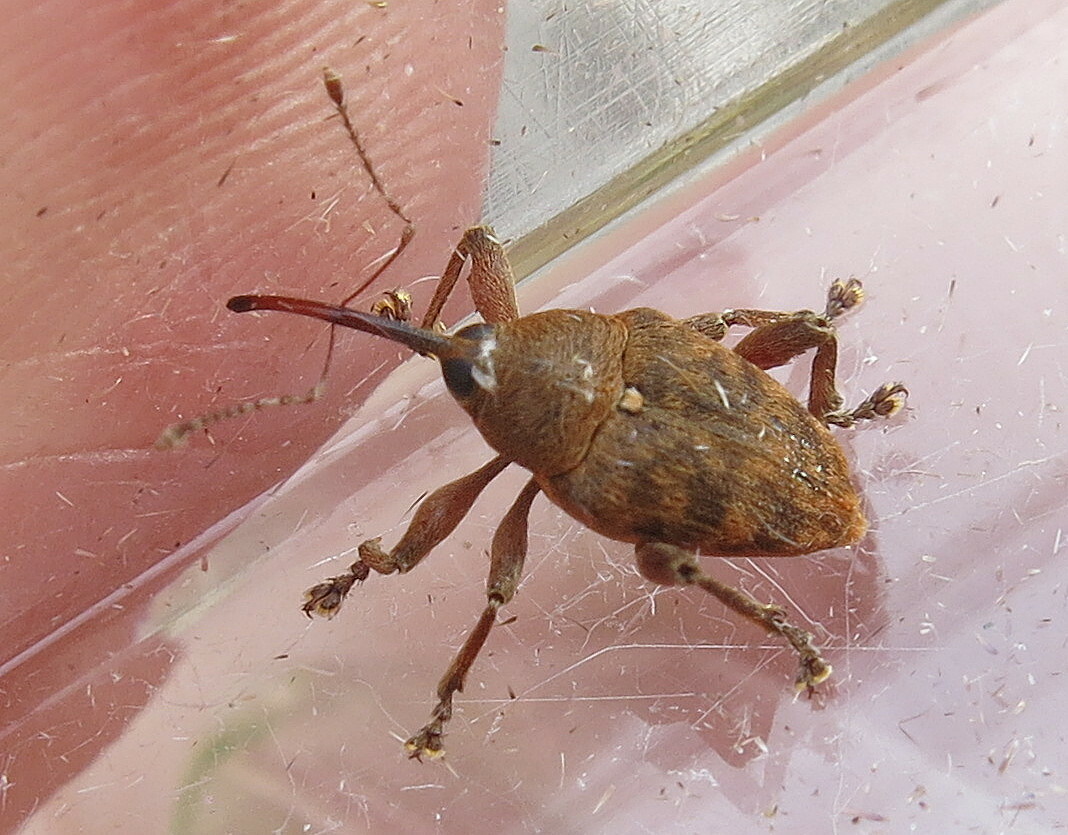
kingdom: Animalia
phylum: Arthropoda
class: Insecta
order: Coleoptera
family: Curculionidae
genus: Curculio
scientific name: Curculio glandium
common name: Acorn weevil
